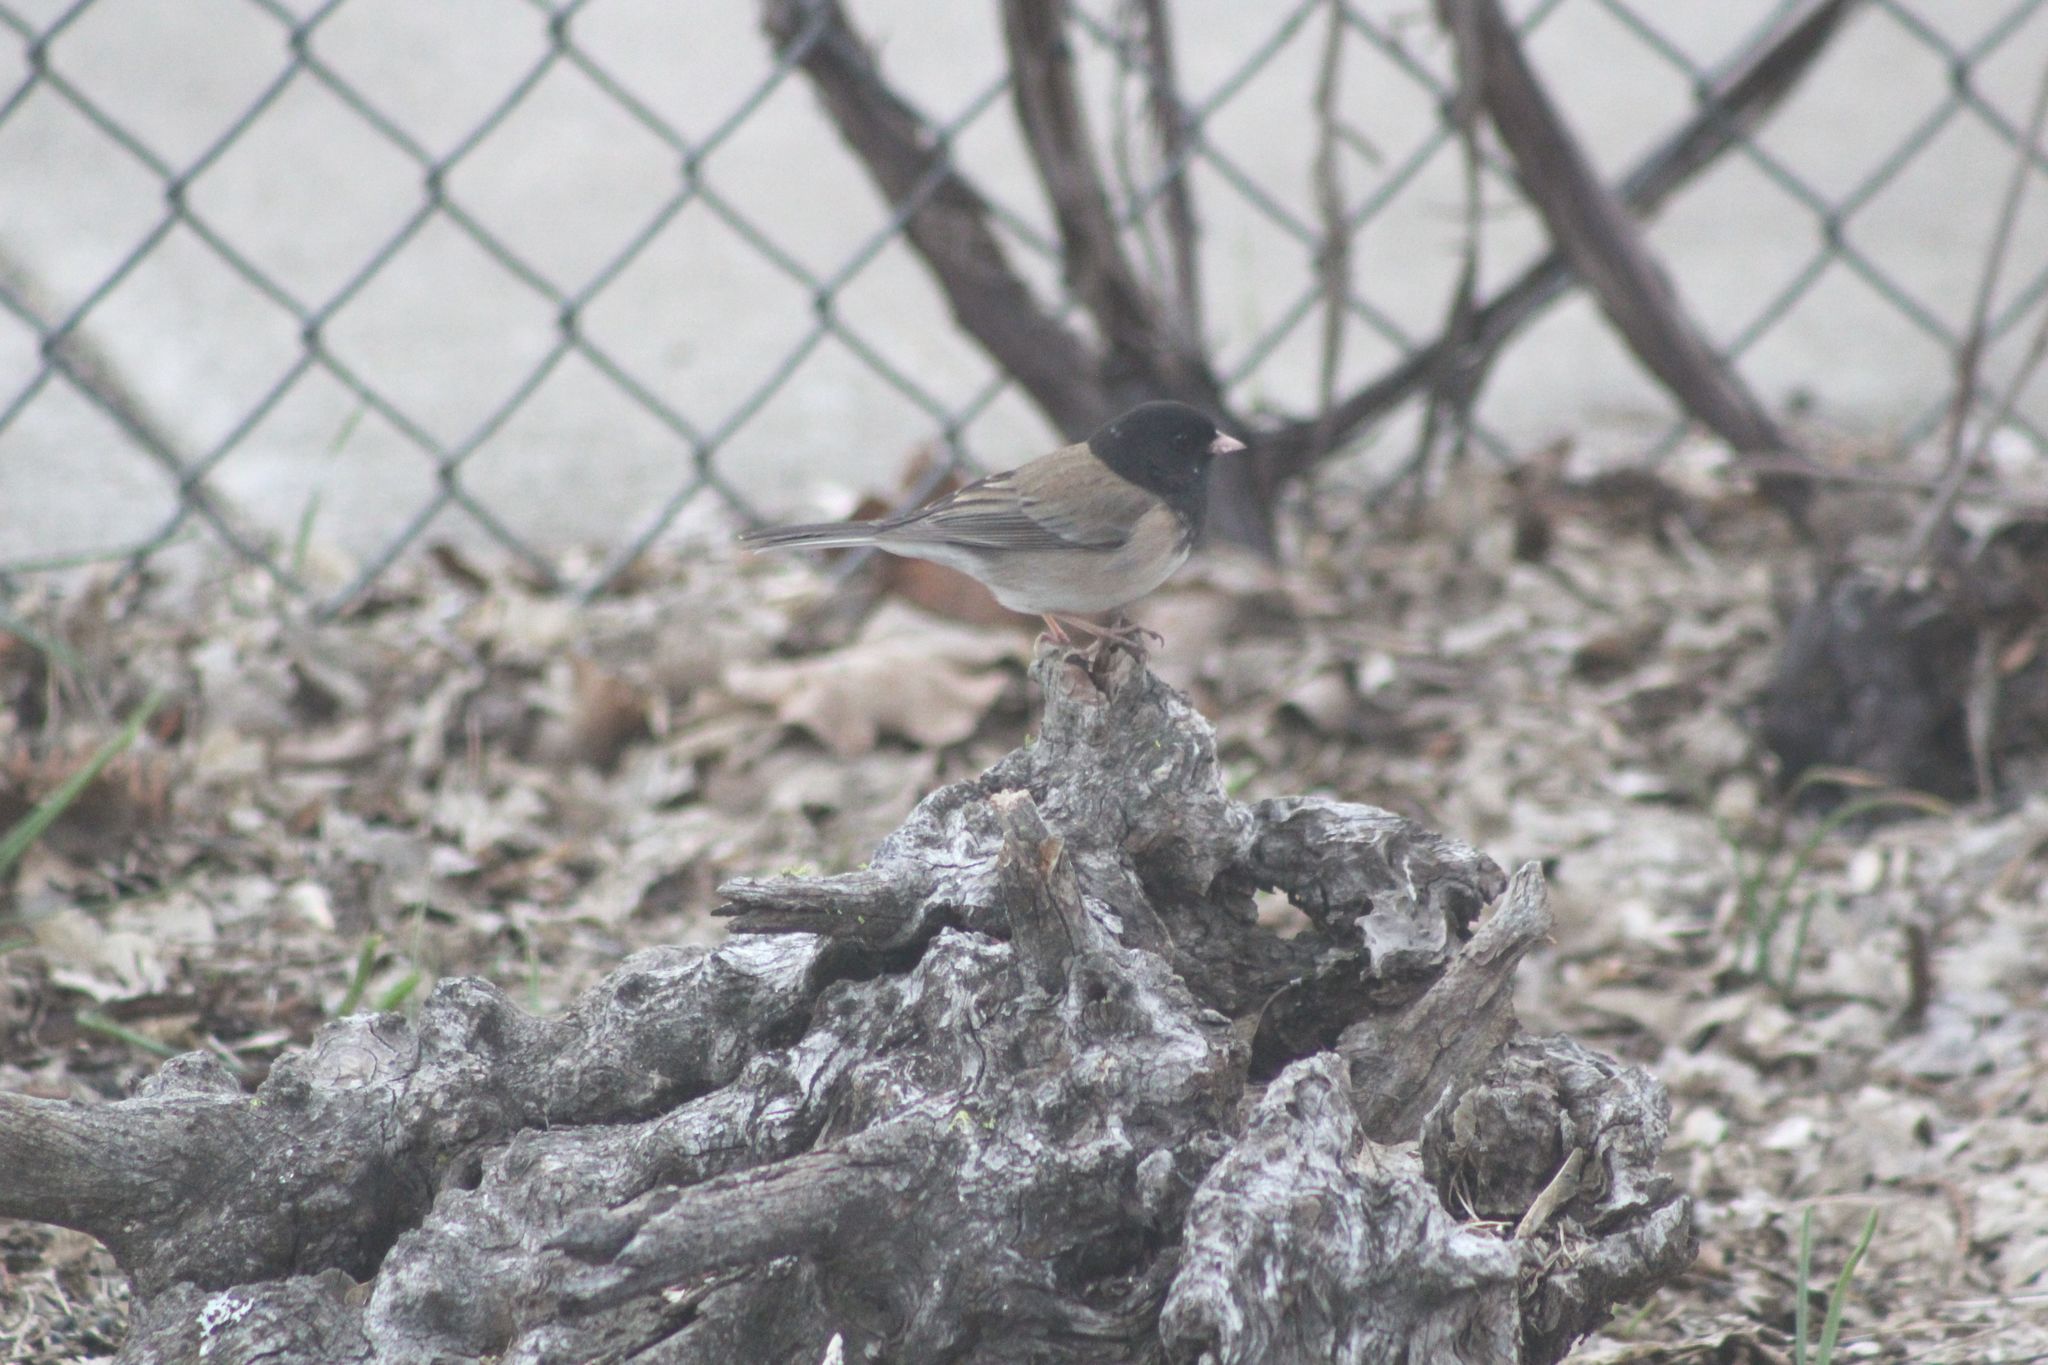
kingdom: Animalia
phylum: Chordata
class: Aves
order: Passeriformes
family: Passerellidae
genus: Junco
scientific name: Junco hyemalis
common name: Dark-eyed junco
